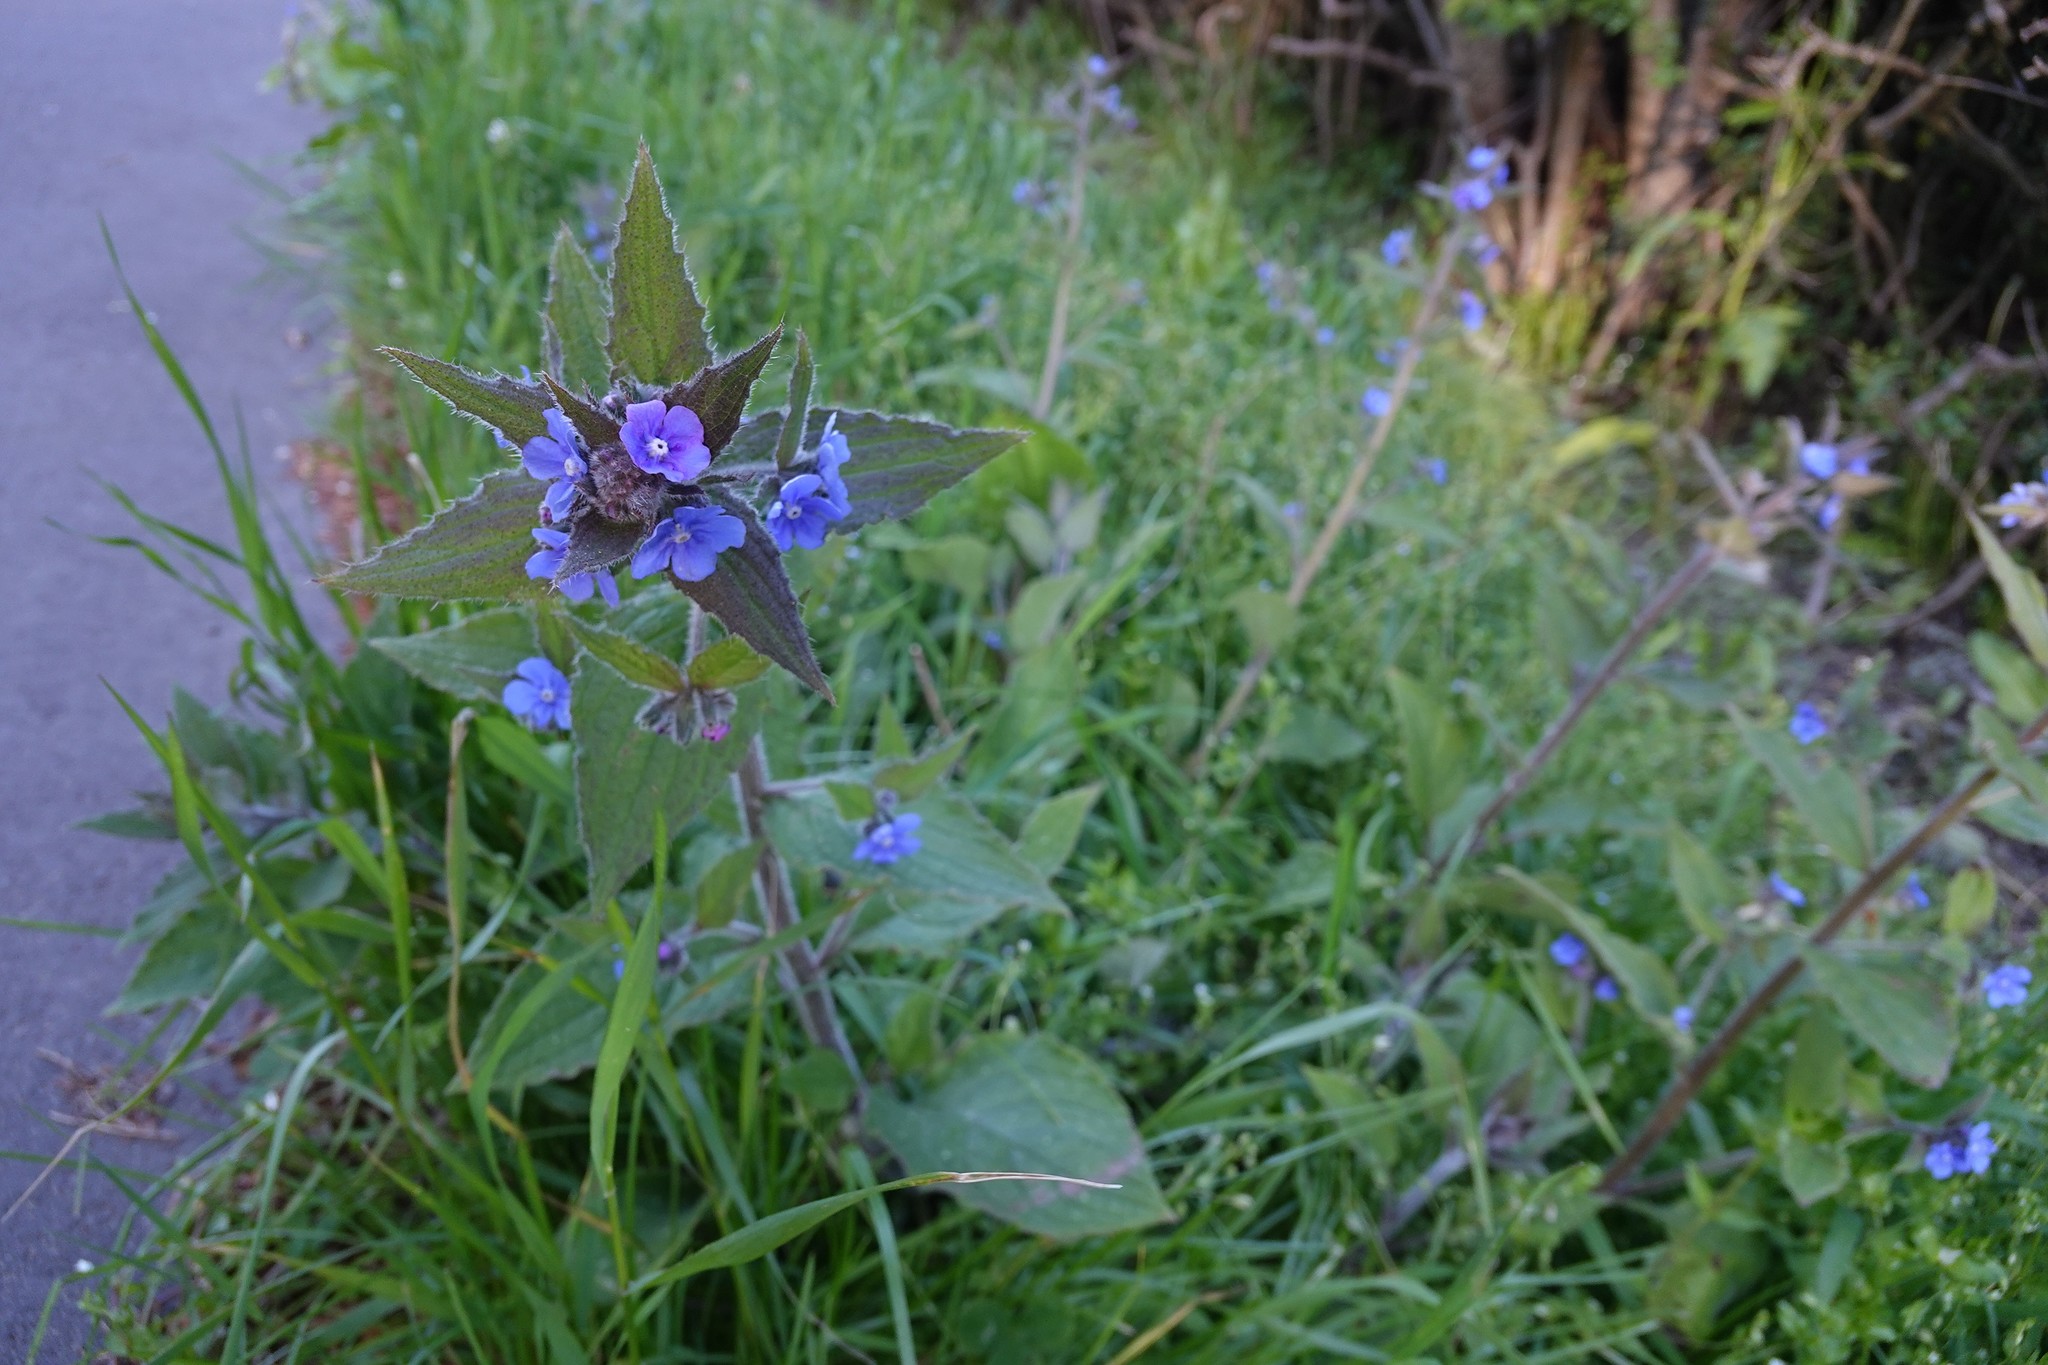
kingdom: Plantae
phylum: Tracheophyta
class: Magnoliopsida
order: Boraginales
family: Boraginaceae
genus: Pentaglottis
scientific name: Pentaglottis sempervirens
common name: Green alkanet
